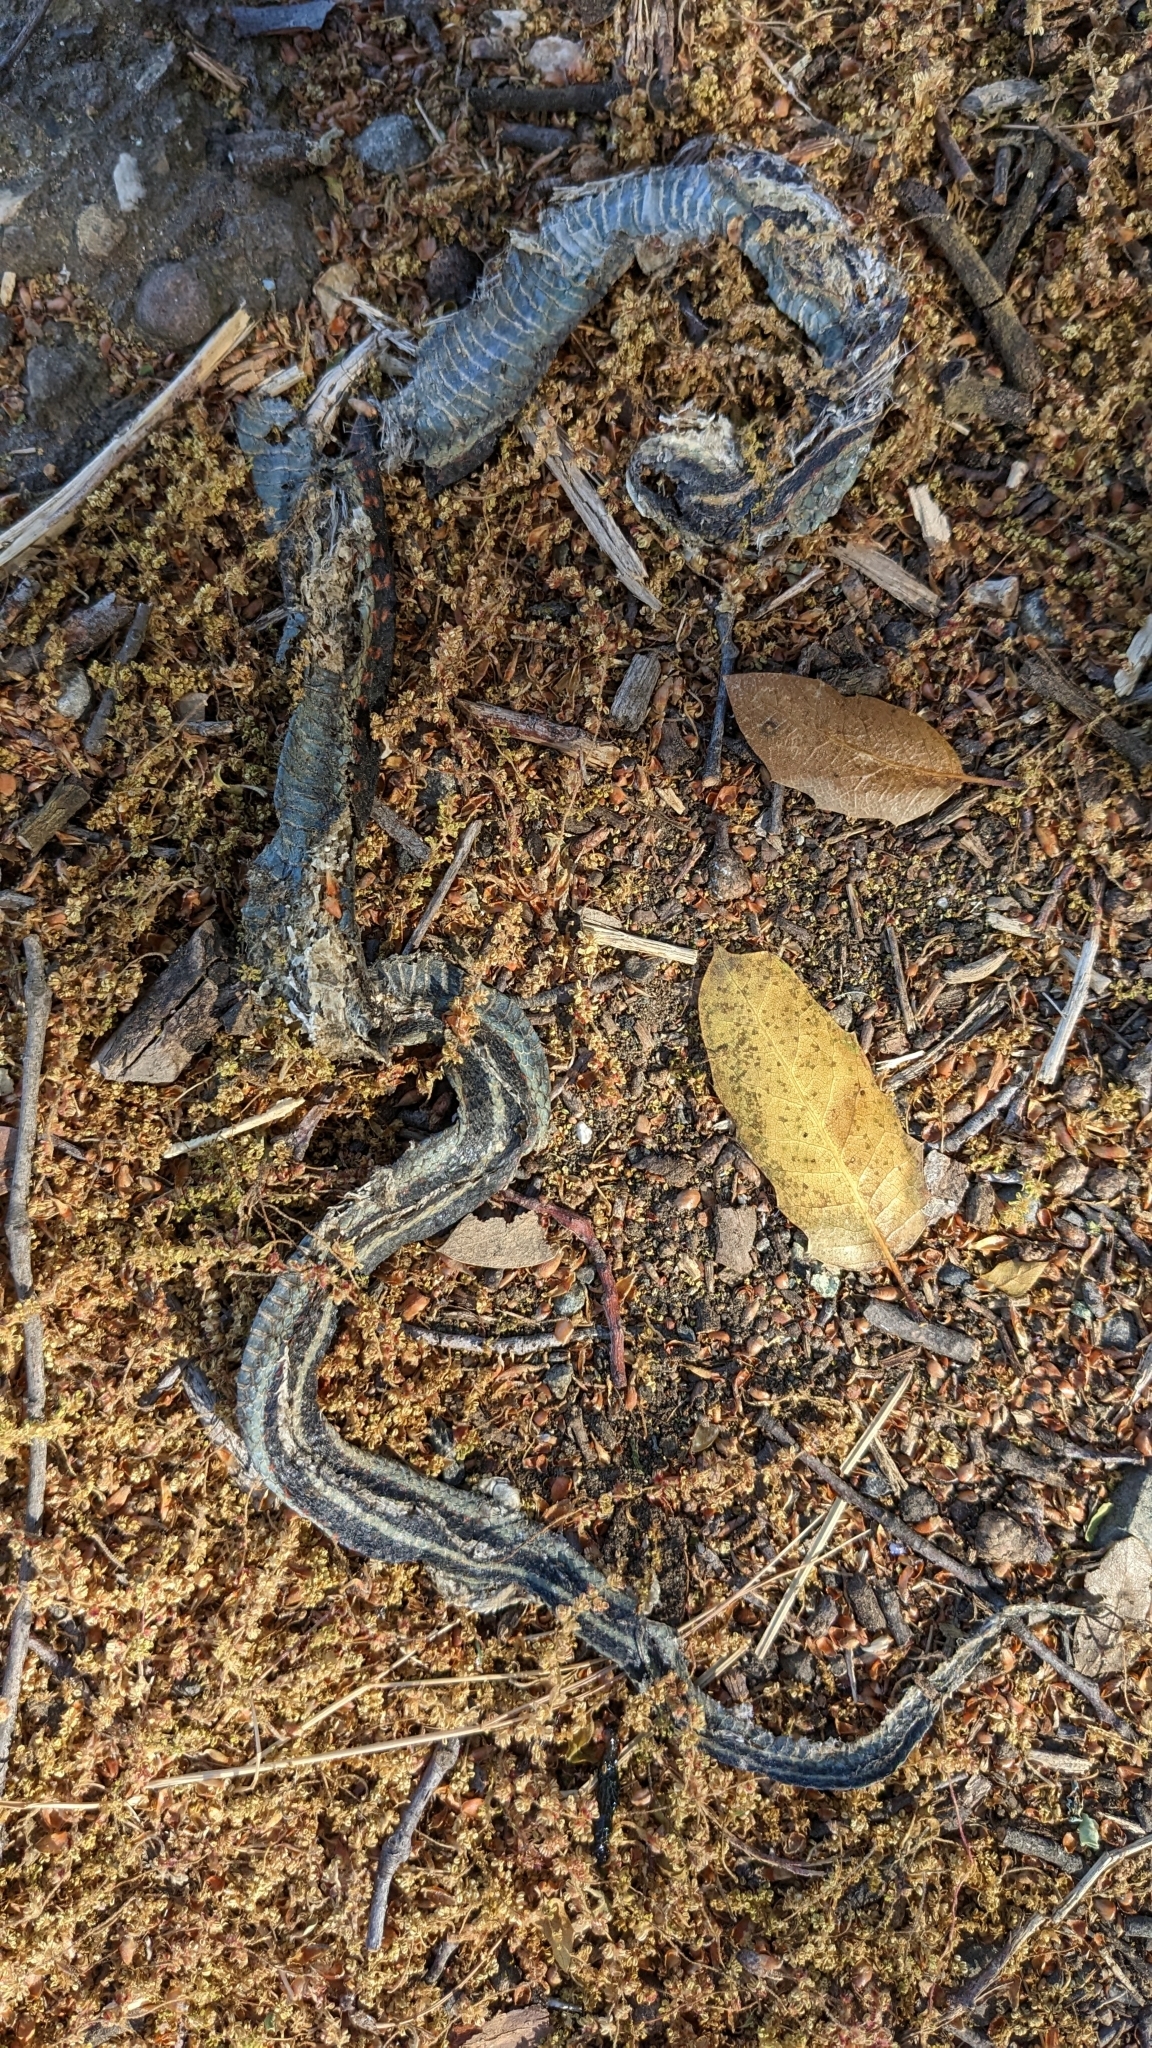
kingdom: Animalia
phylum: Chordata
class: Squamata
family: Colubridae
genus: Thamnophis
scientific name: Thamnophis sirtalis
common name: Common garter snake
